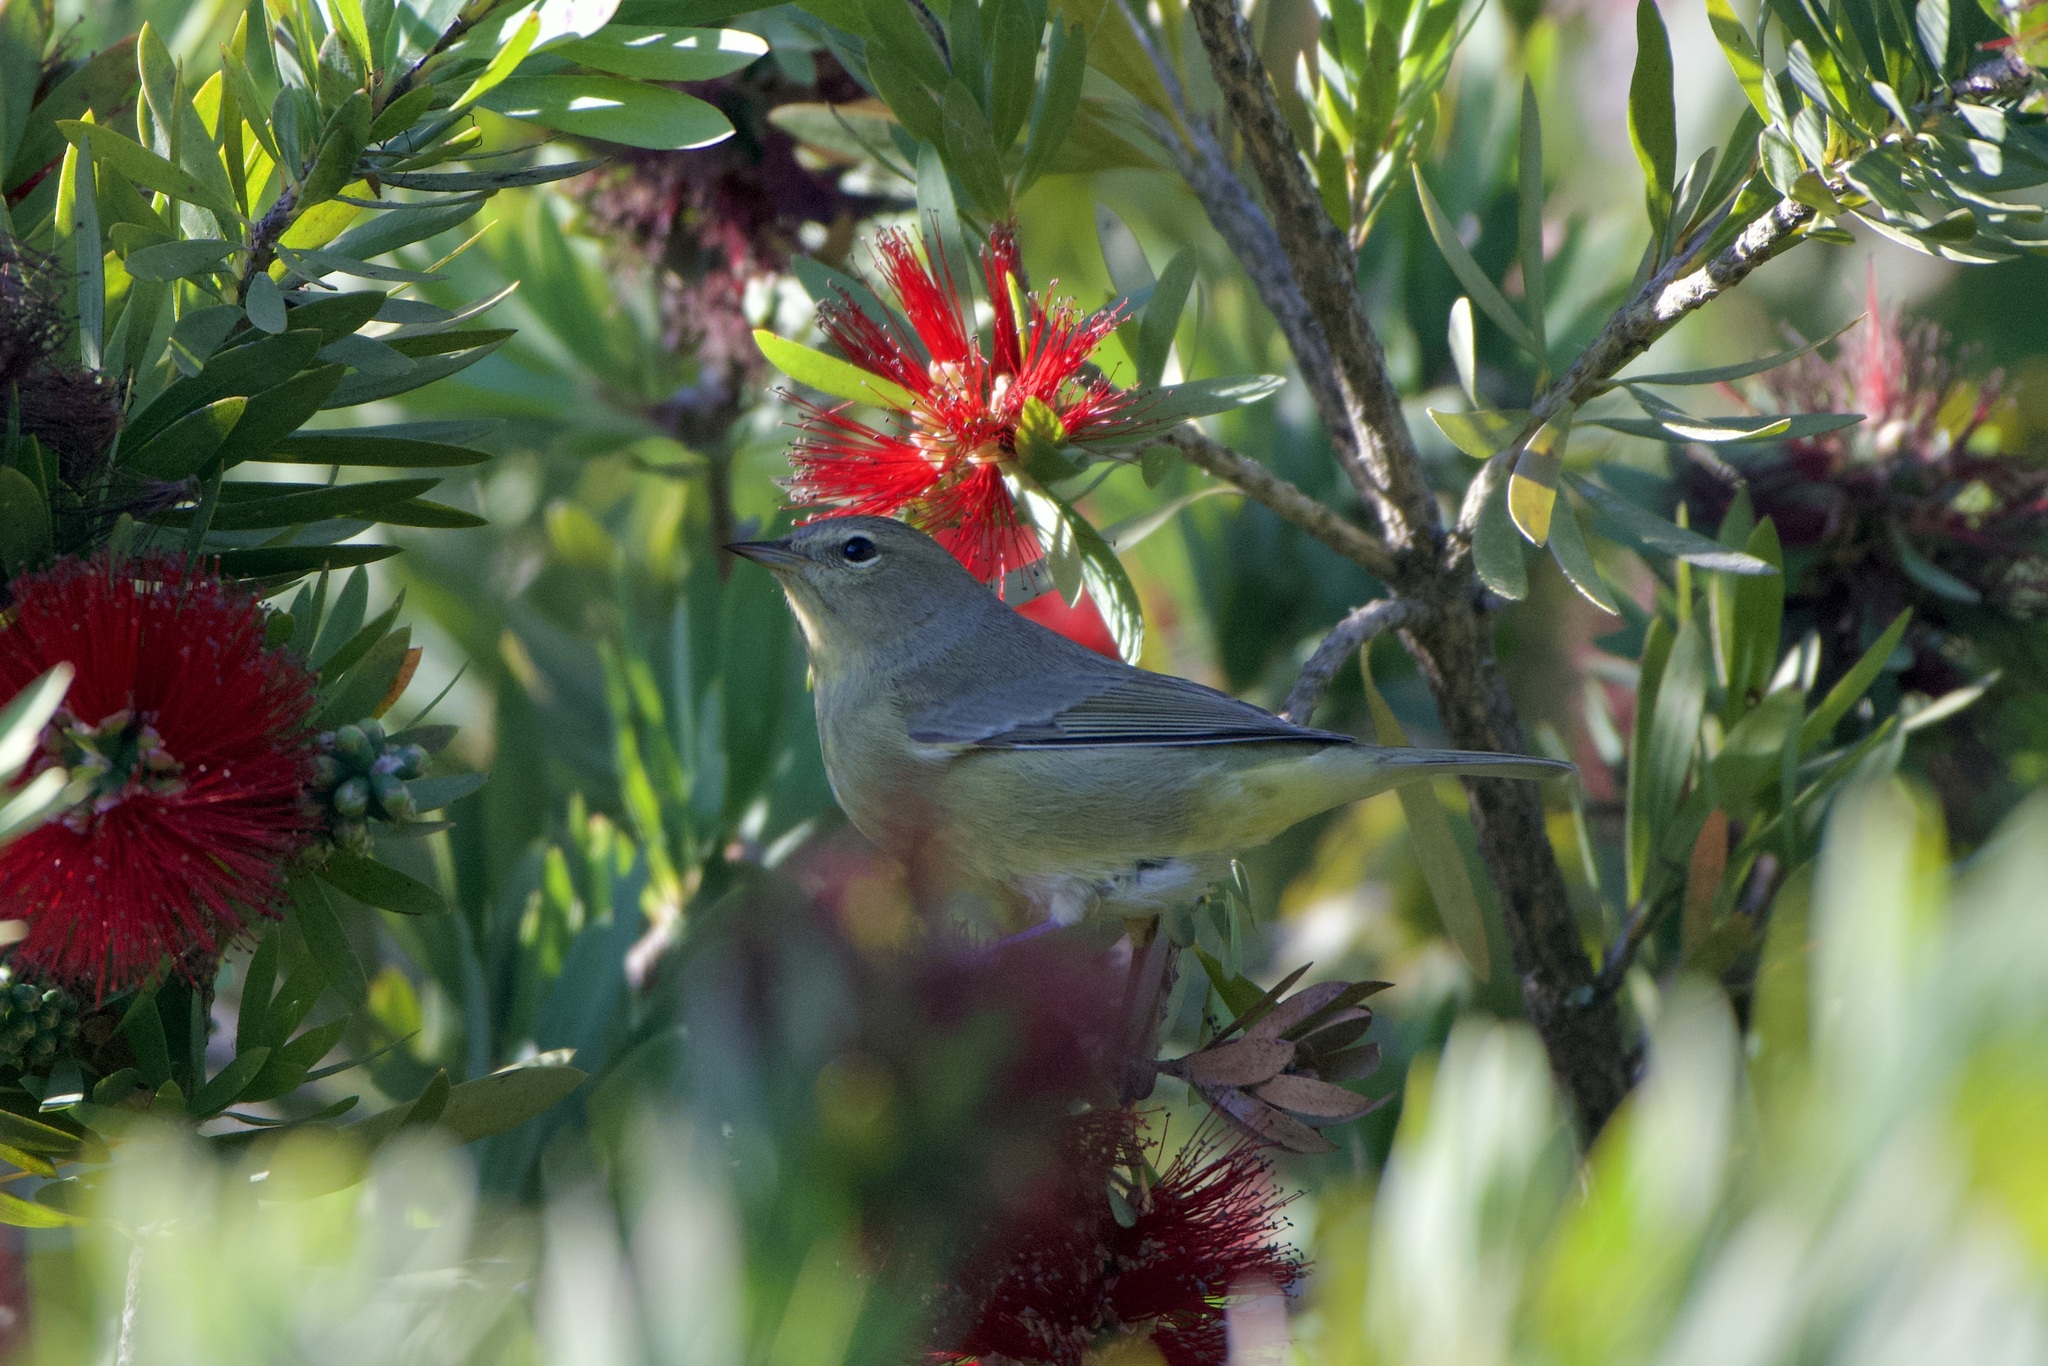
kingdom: Animalia
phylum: Chordata
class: Aves
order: Passeriformes
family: Parulidae
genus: Leiothlypis
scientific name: Leiothlypis celata
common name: Orange-crowned warbler
